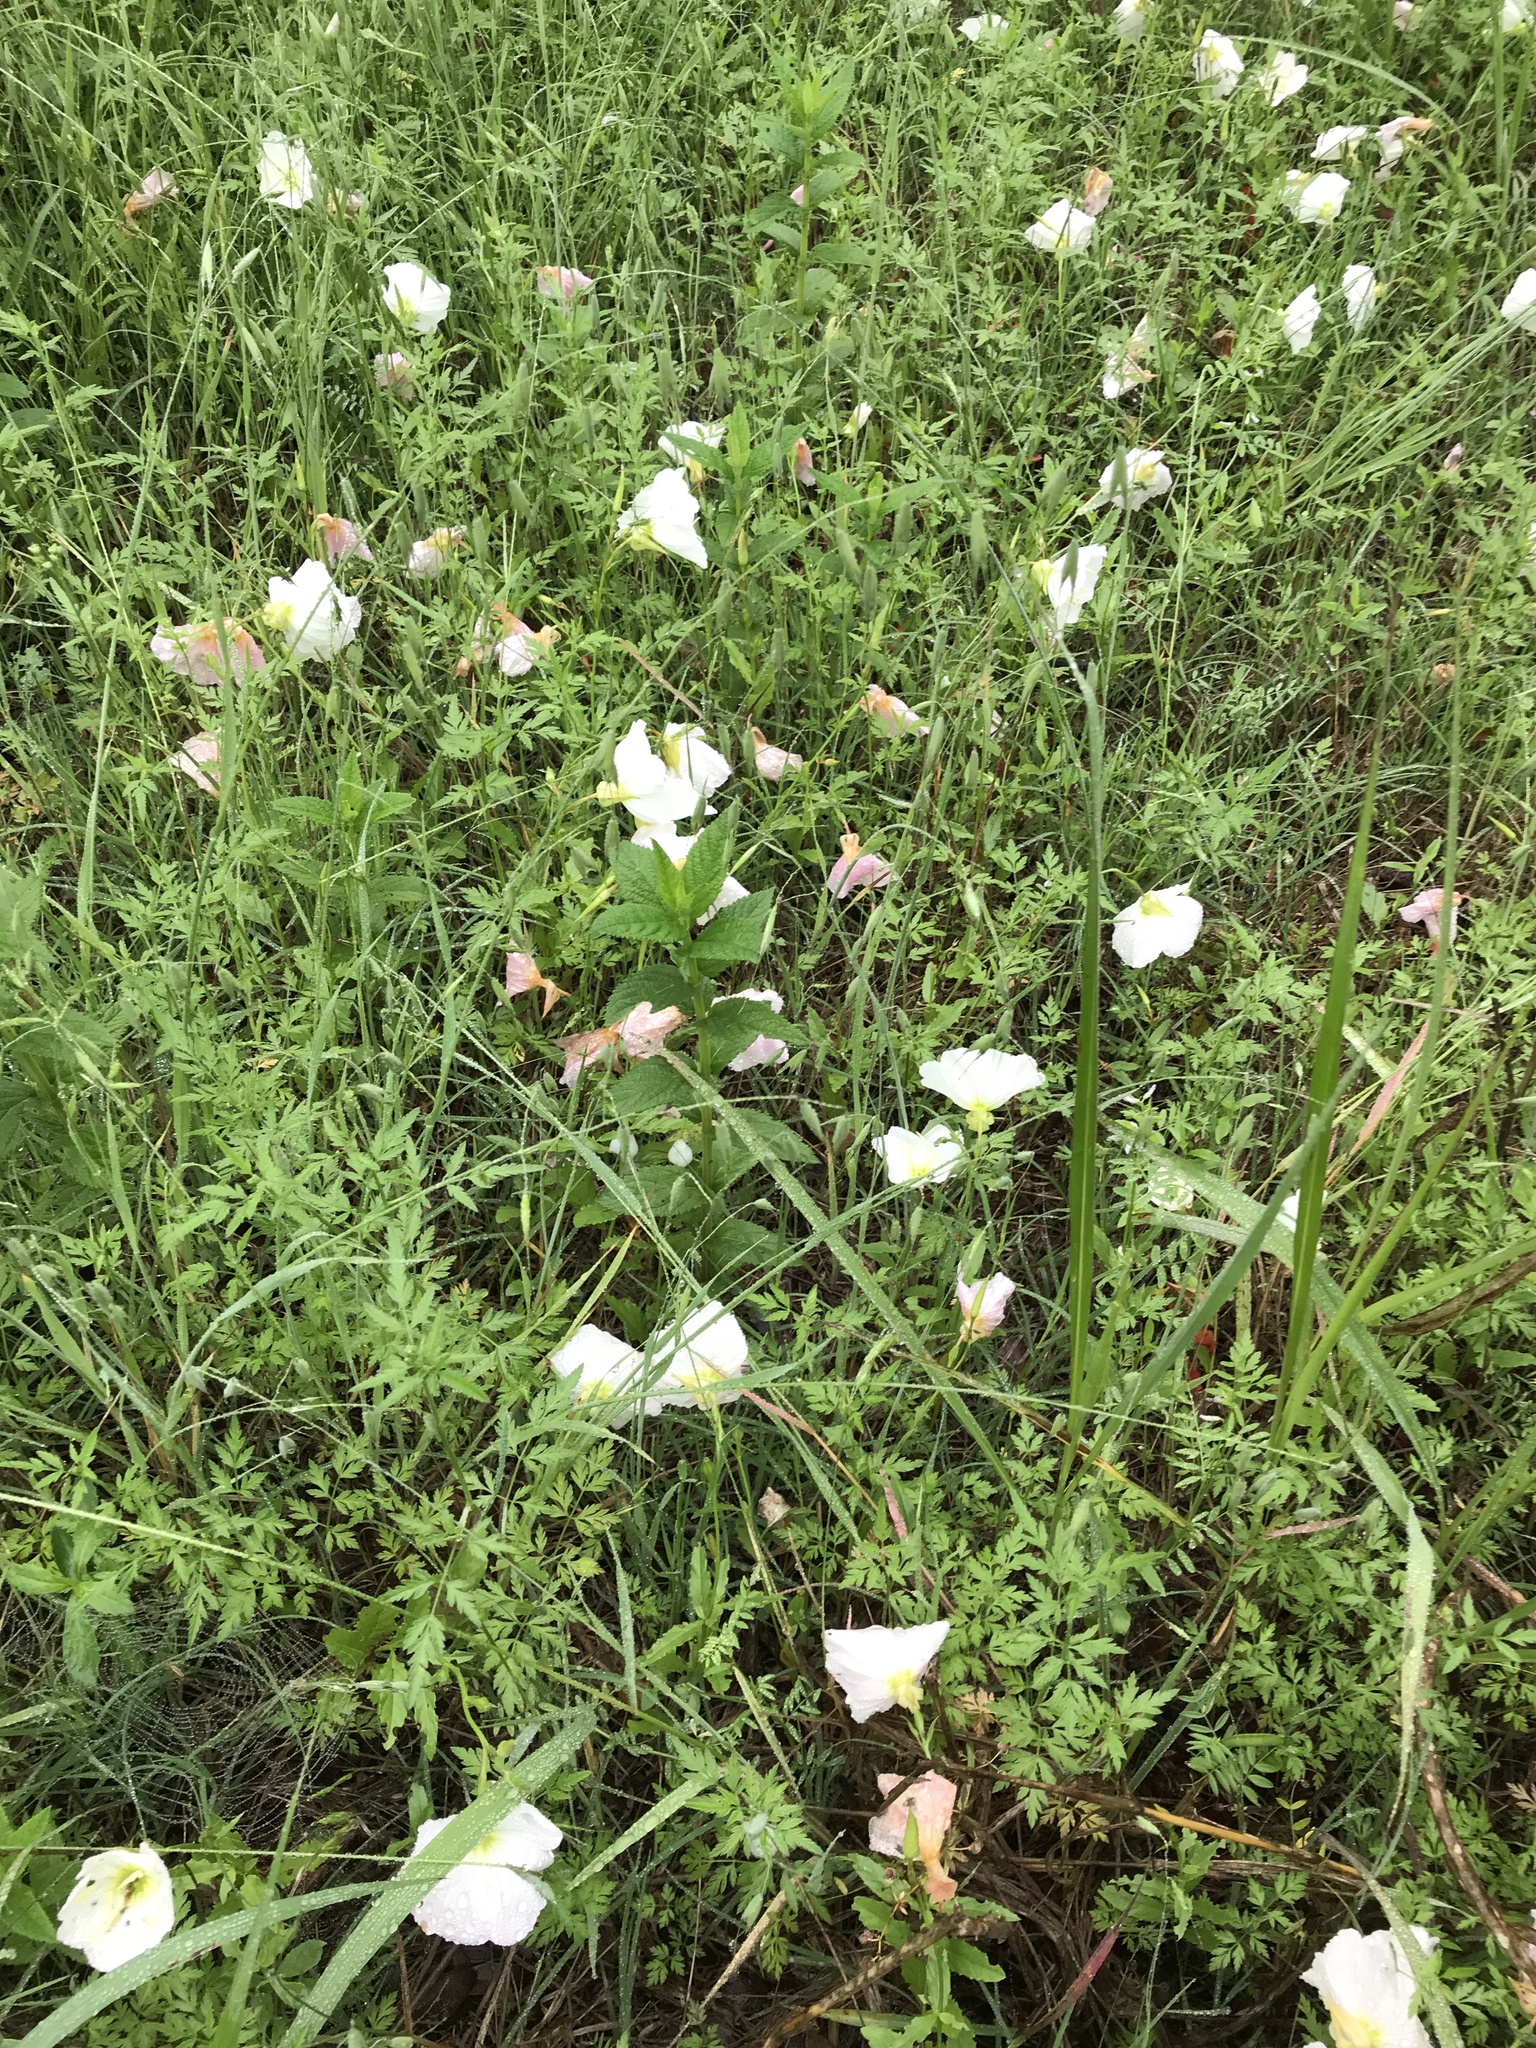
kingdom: Plantae
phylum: Tracheophyta
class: Magnoliopsida
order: Myrtales
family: Onagraceae
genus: Oenothera
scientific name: Oenothera speciosa
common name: White evening-primrose
